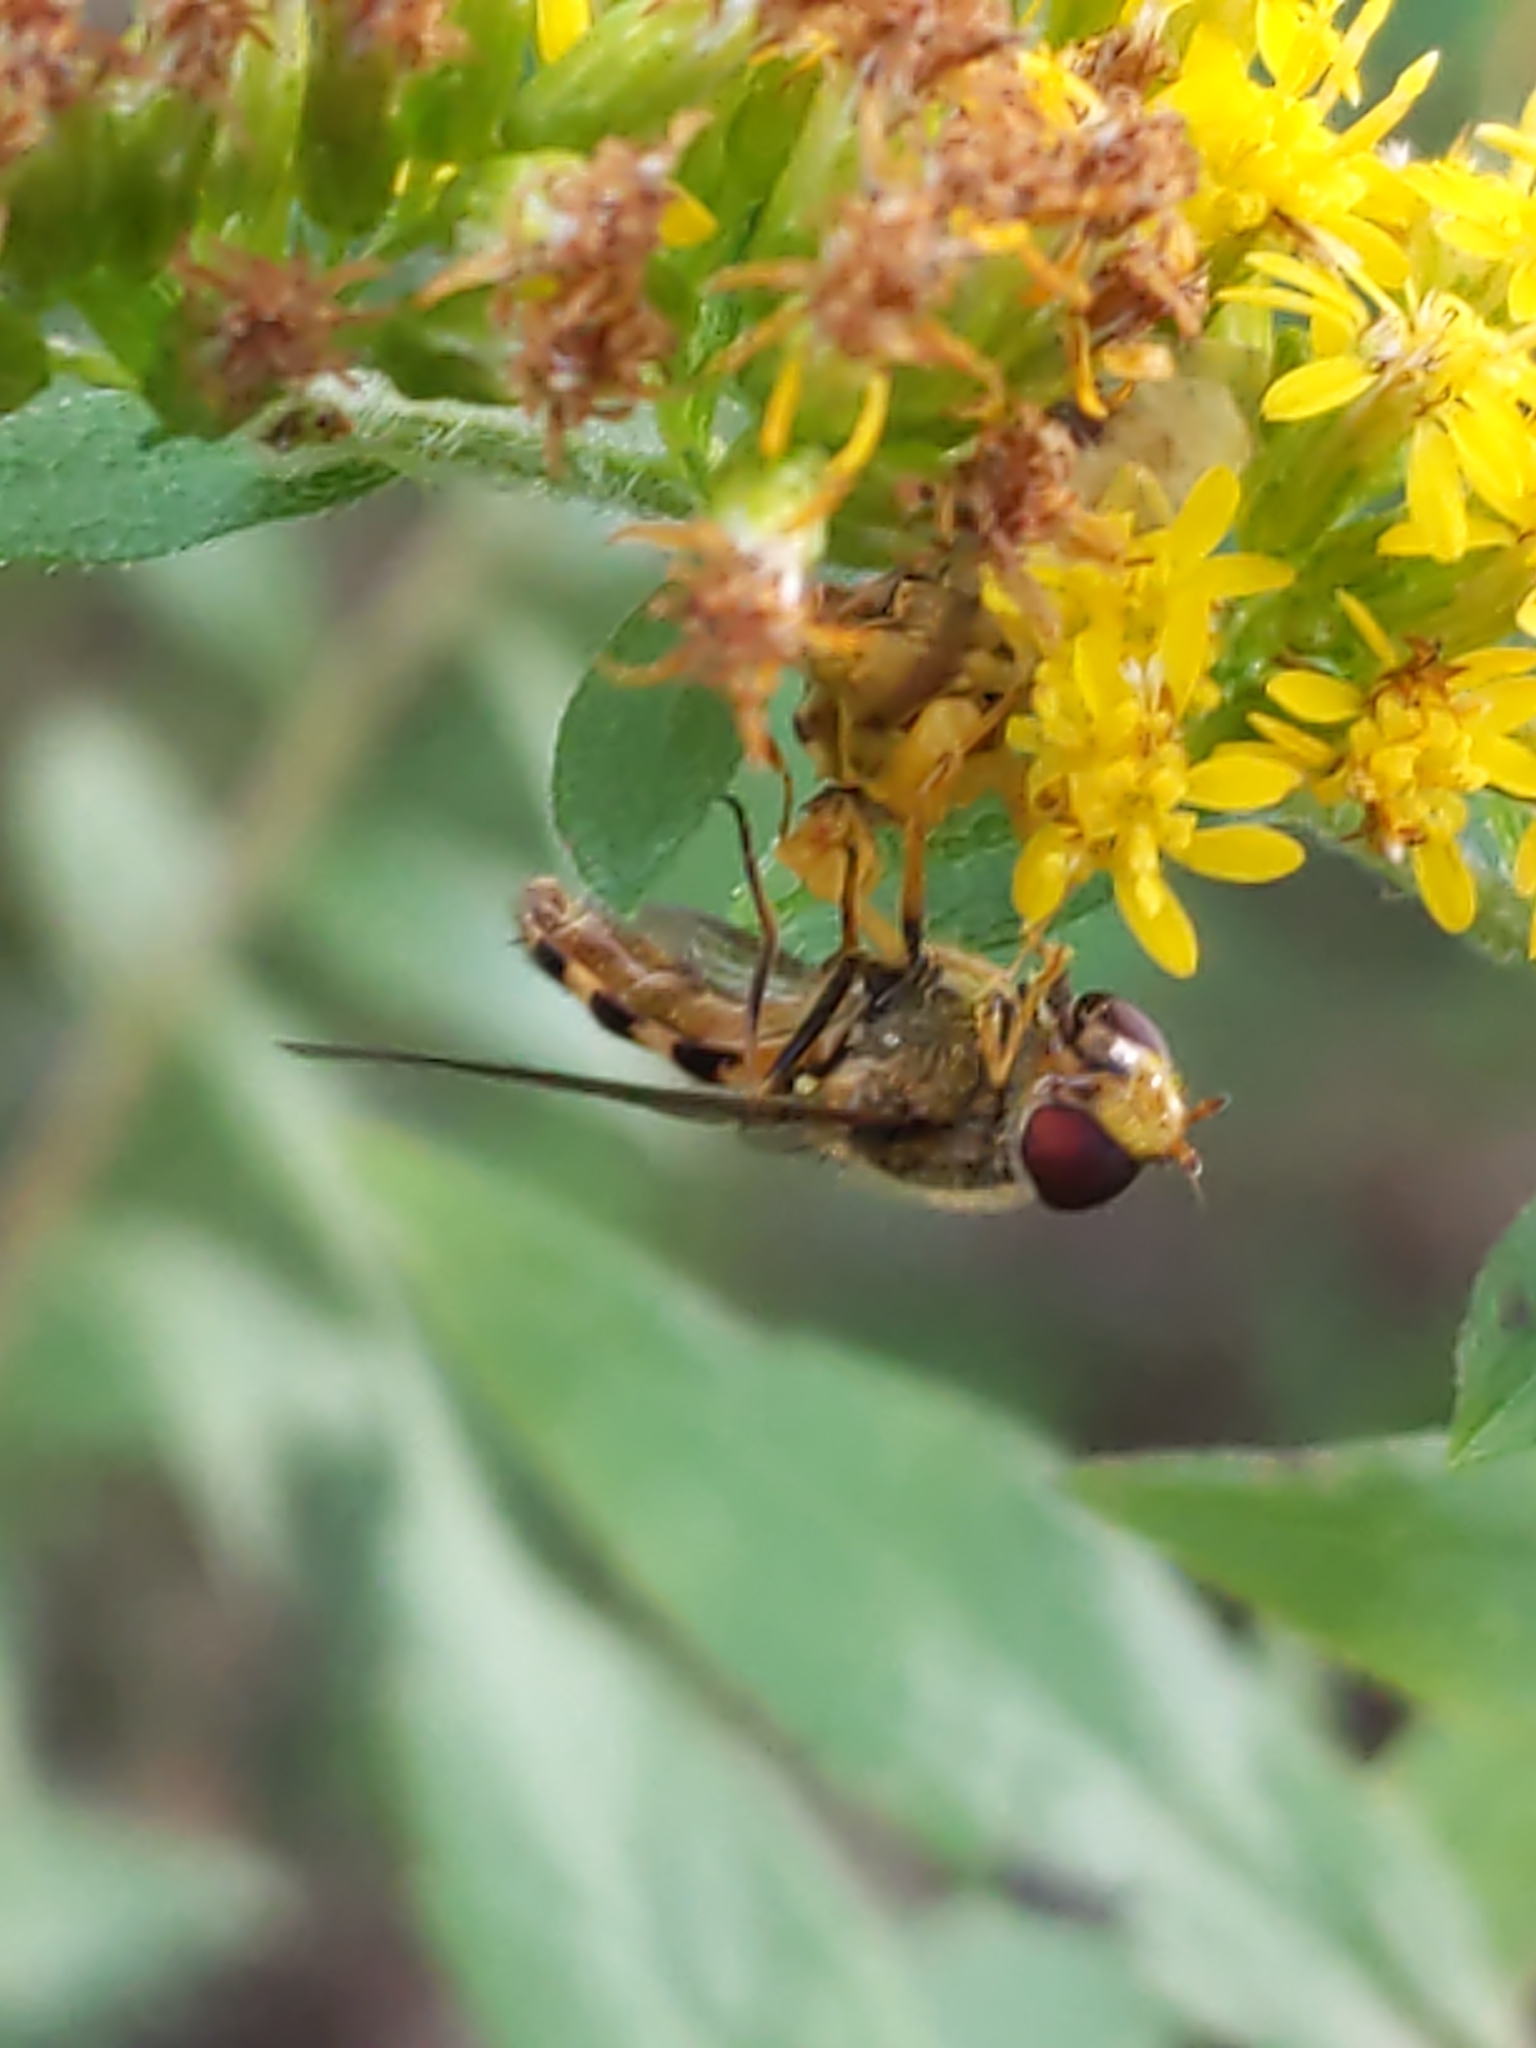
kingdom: Animalia
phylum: Arthropoda
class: Insecta
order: Diptera
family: Syrphidae
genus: Syrphus
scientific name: Syrphus
